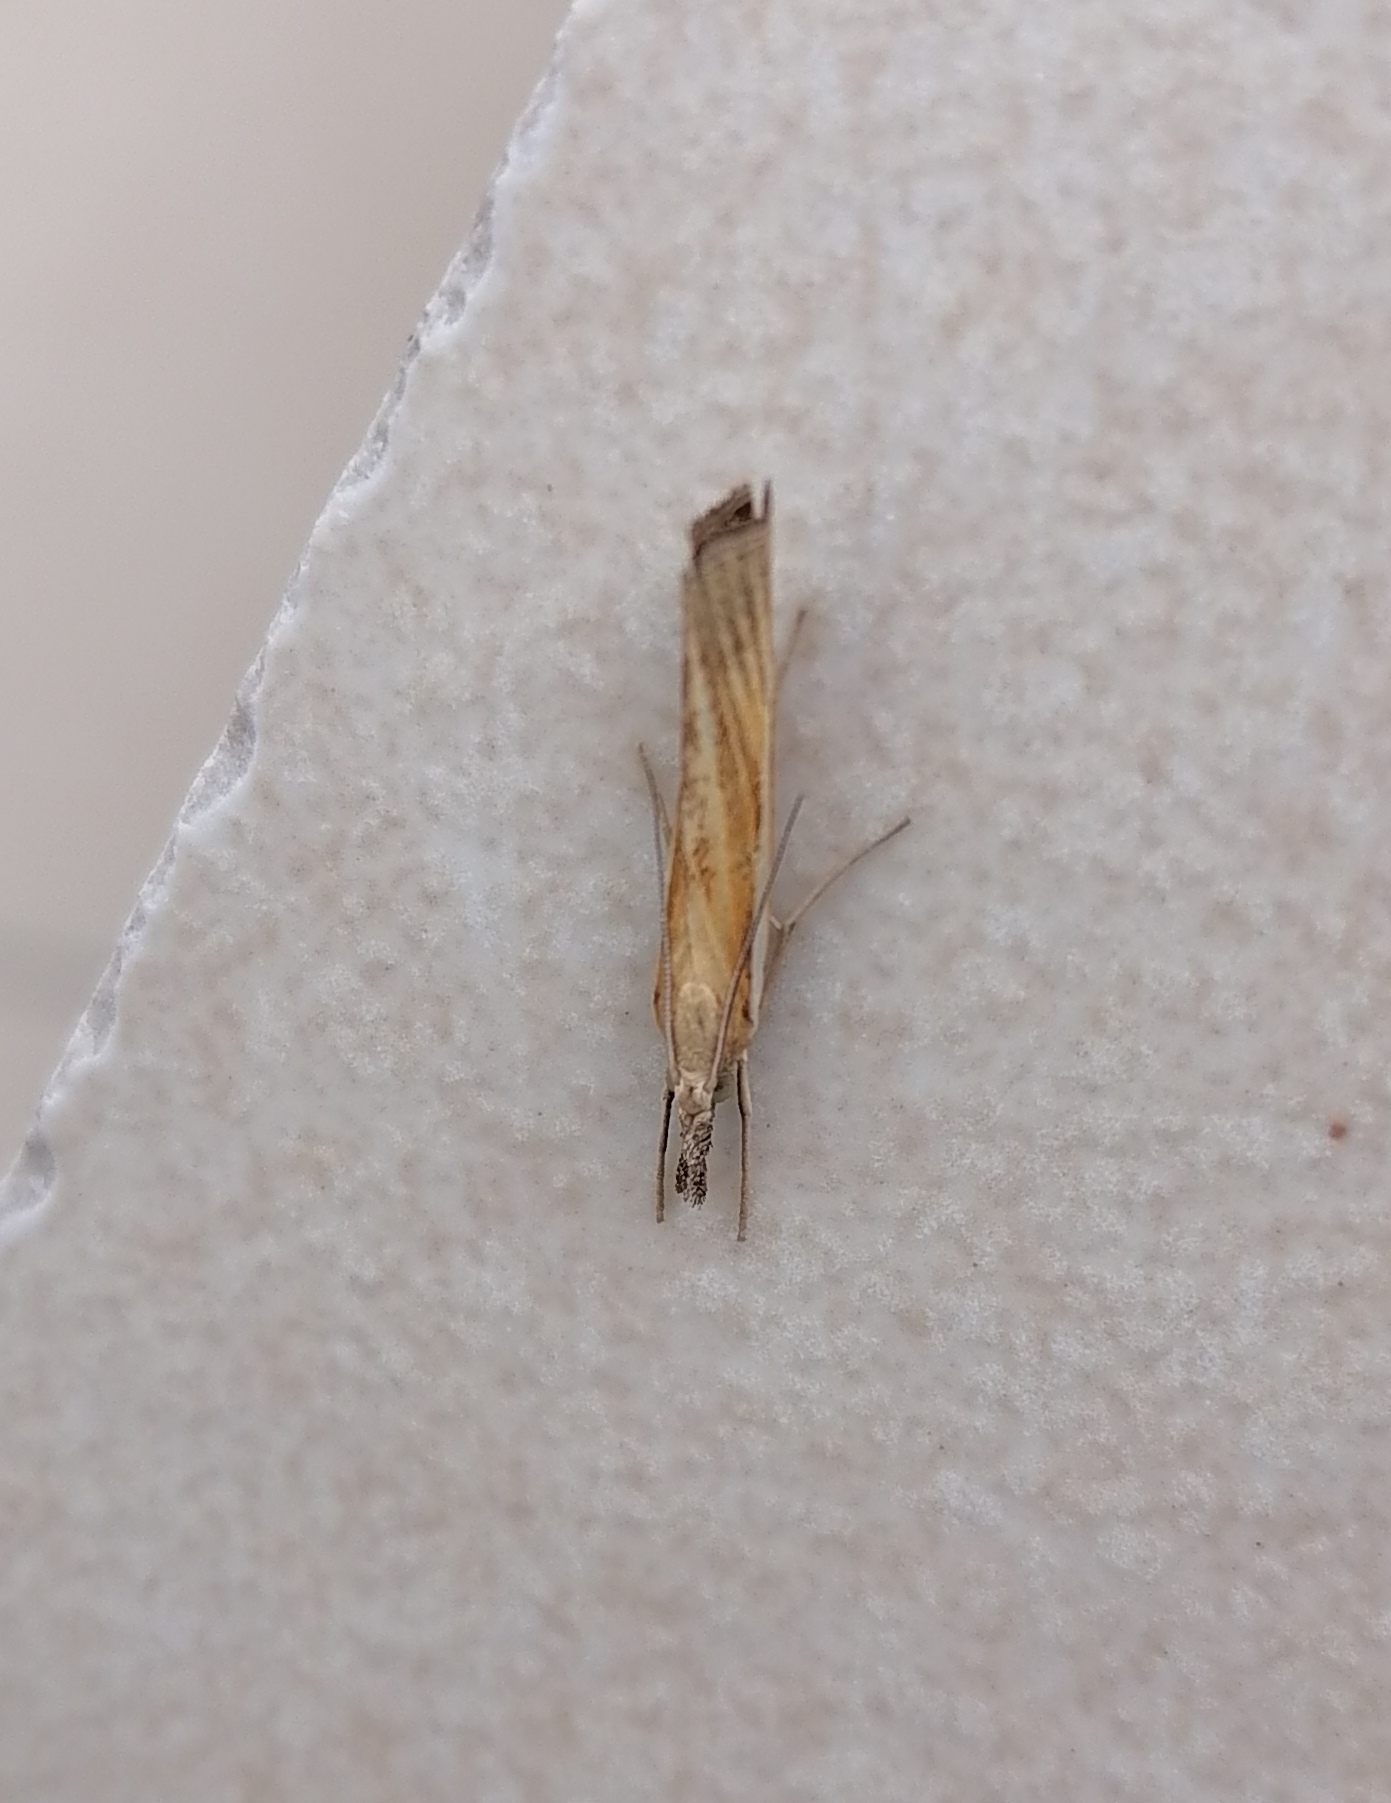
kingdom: Animalia
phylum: Arthropoda
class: Insecta
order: Lepidoptera
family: Crambidae
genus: Agriphila
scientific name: Agriphila tristellus
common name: Common grass-veneer
